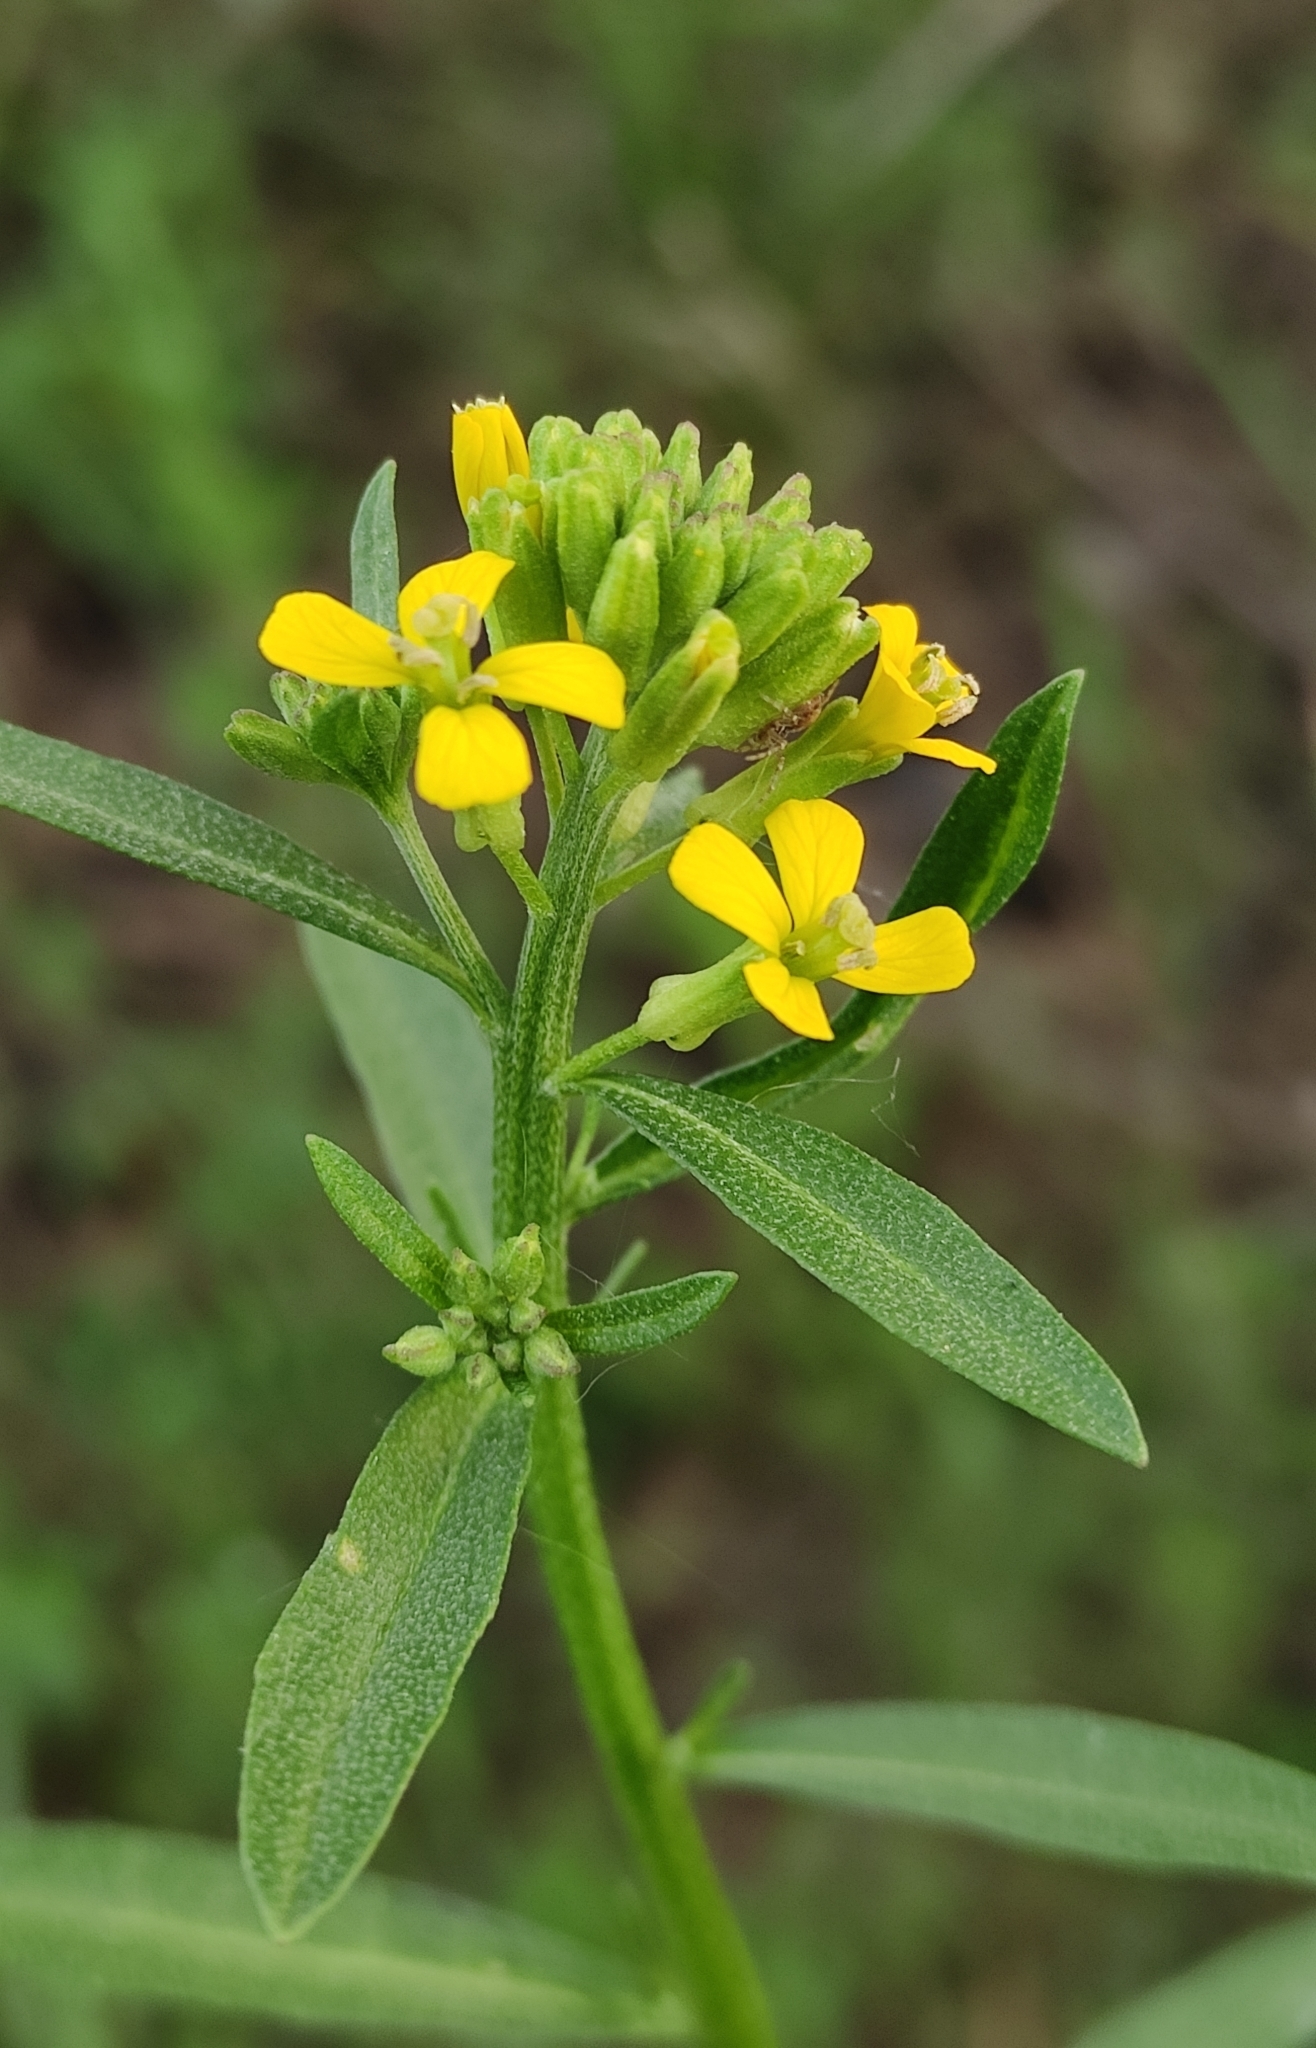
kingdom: Plantae
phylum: Tracheophyta
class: Magnoliopsida
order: Brassicales
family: Brassicaceae
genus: Erysimum
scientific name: Erysimum hieraciifolium
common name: European wallflower
